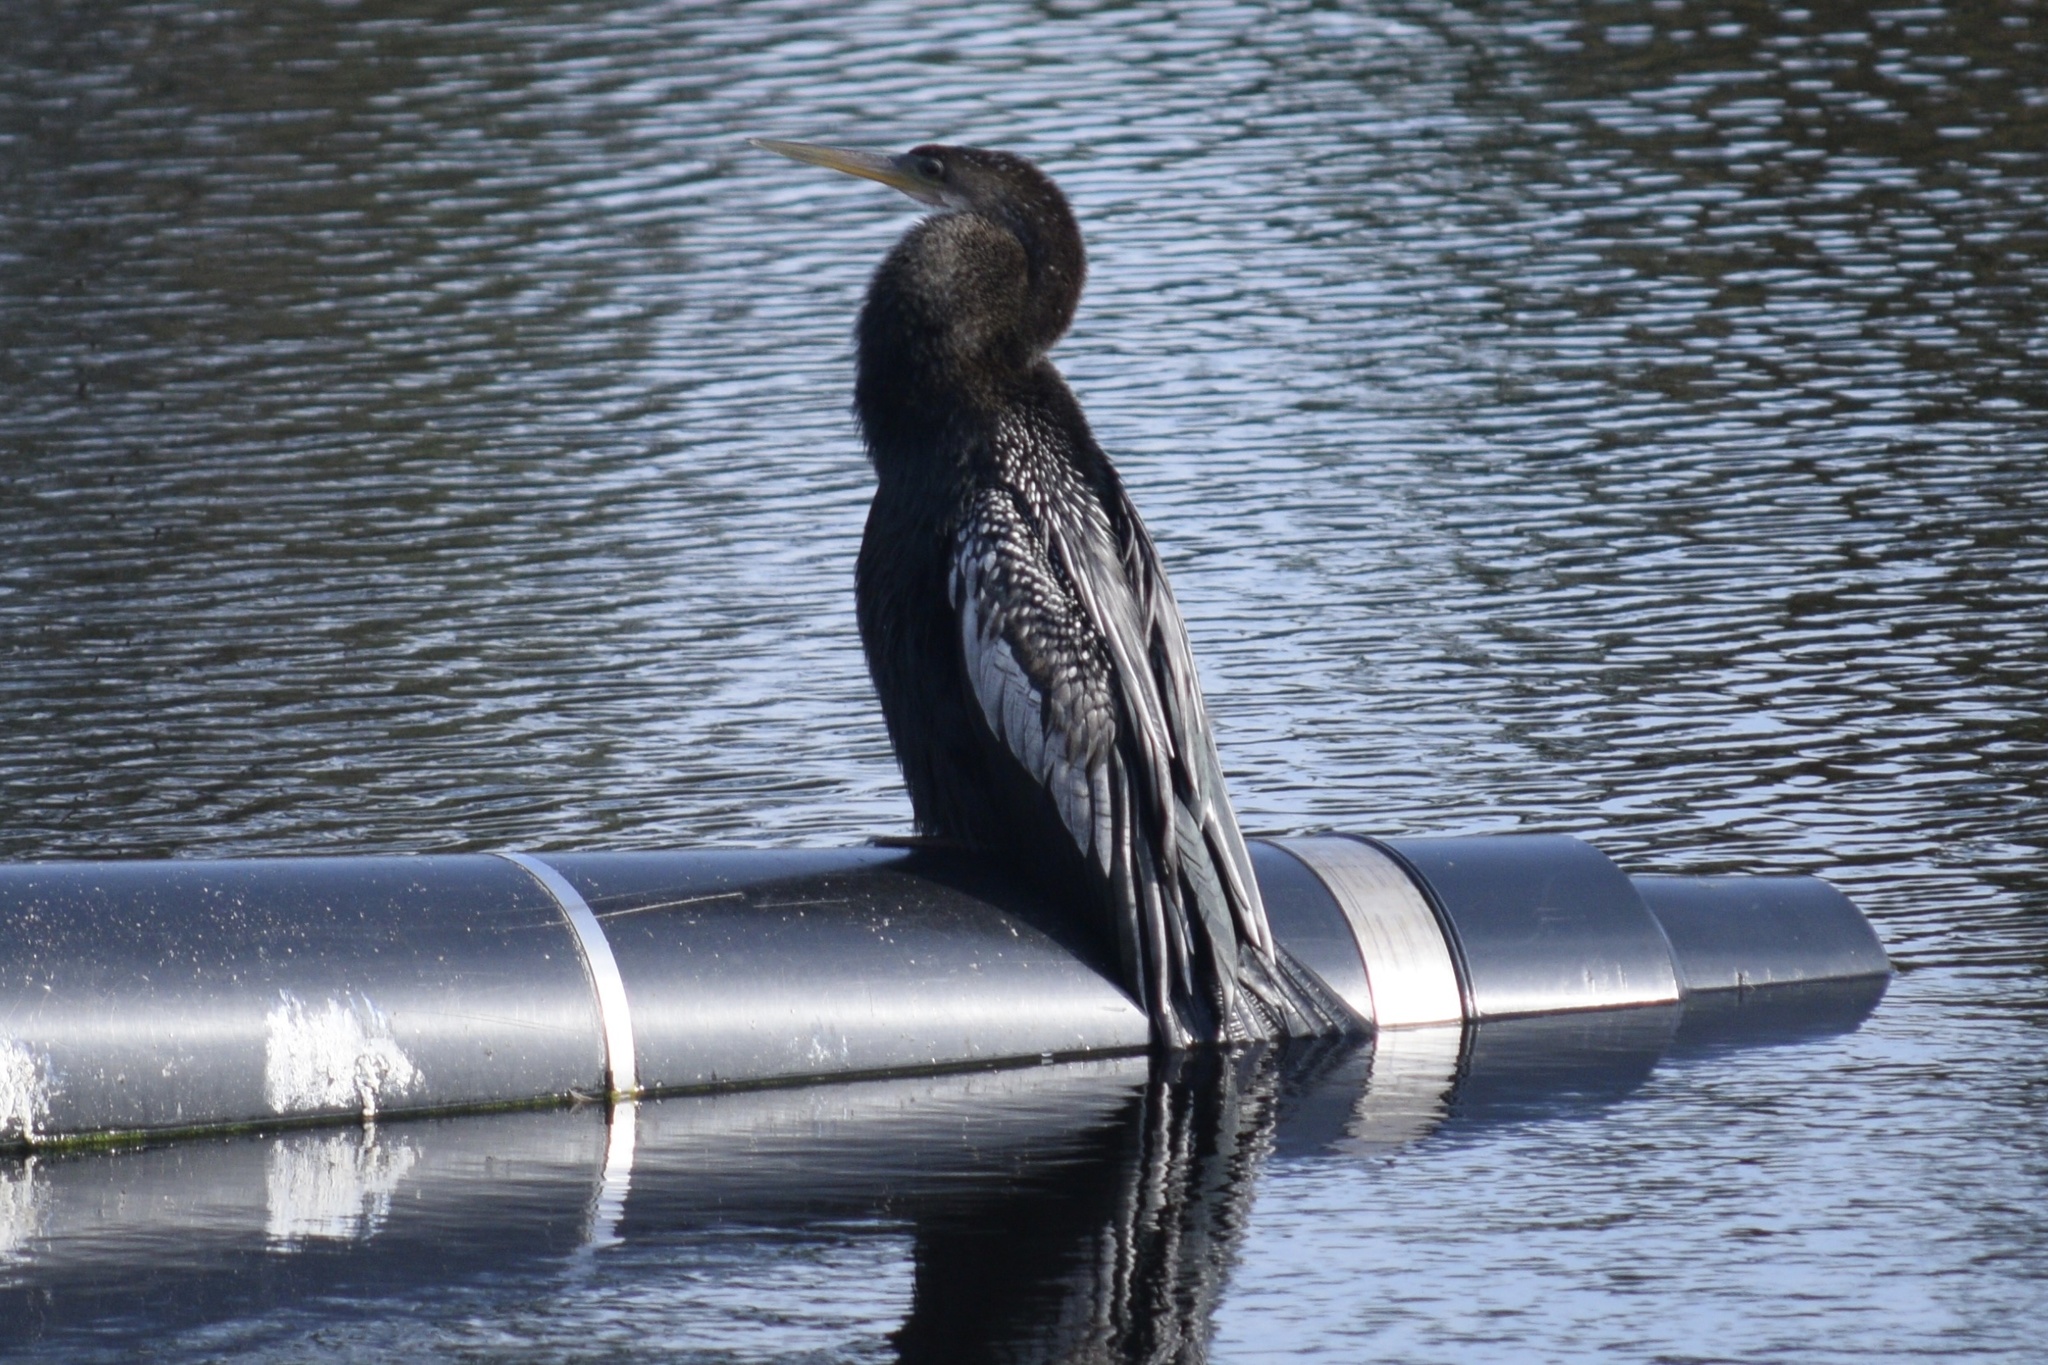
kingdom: Animalia
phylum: Chordata
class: Aves
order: Suliformes
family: Anhingidae
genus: Anhinga
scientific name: Anhinga anhinga
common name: Anhinga
